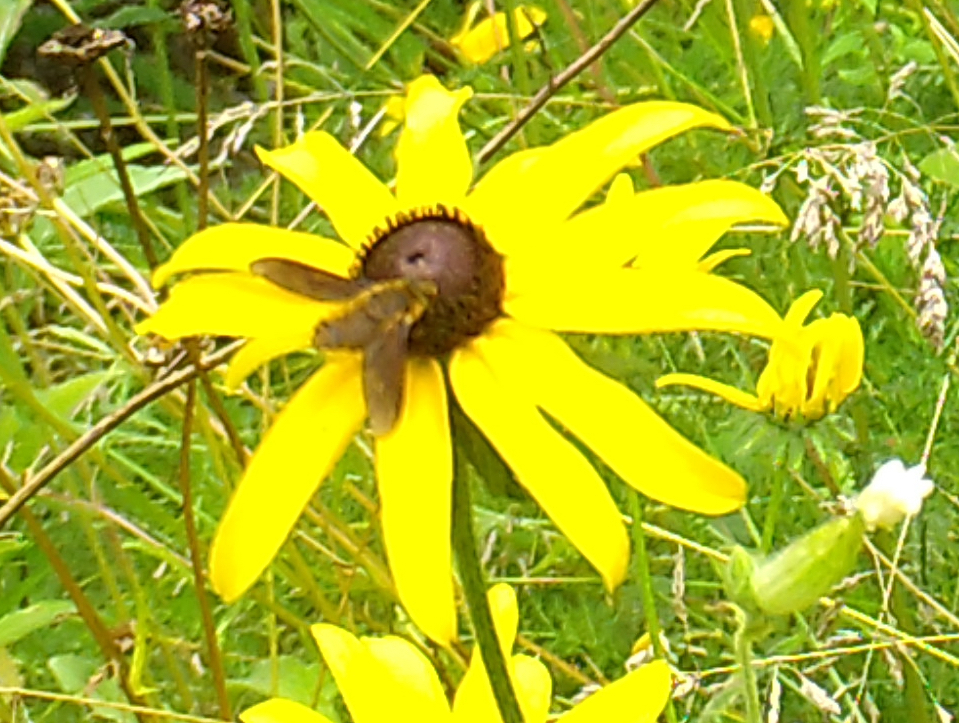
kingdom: Animalia
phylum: Arthropoda
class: Insecta
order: Diptera
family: Bombyliidae
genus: Poecilanthrax
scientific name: Poecilanthrax tegminipennis
